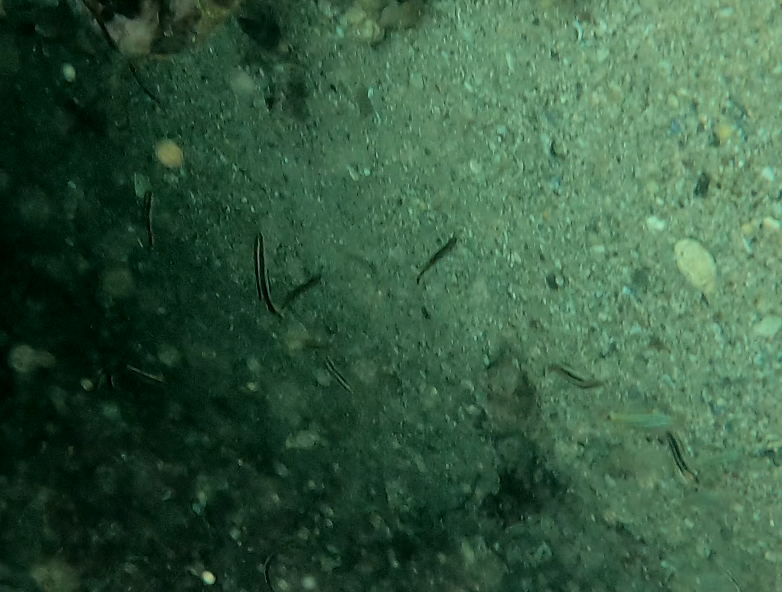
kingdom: Animalia
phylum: Chordata
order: Perciformes
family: Plesiopidae
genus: Trachinops
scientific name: Trachinops taeniatus
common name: Eastern hulafish
